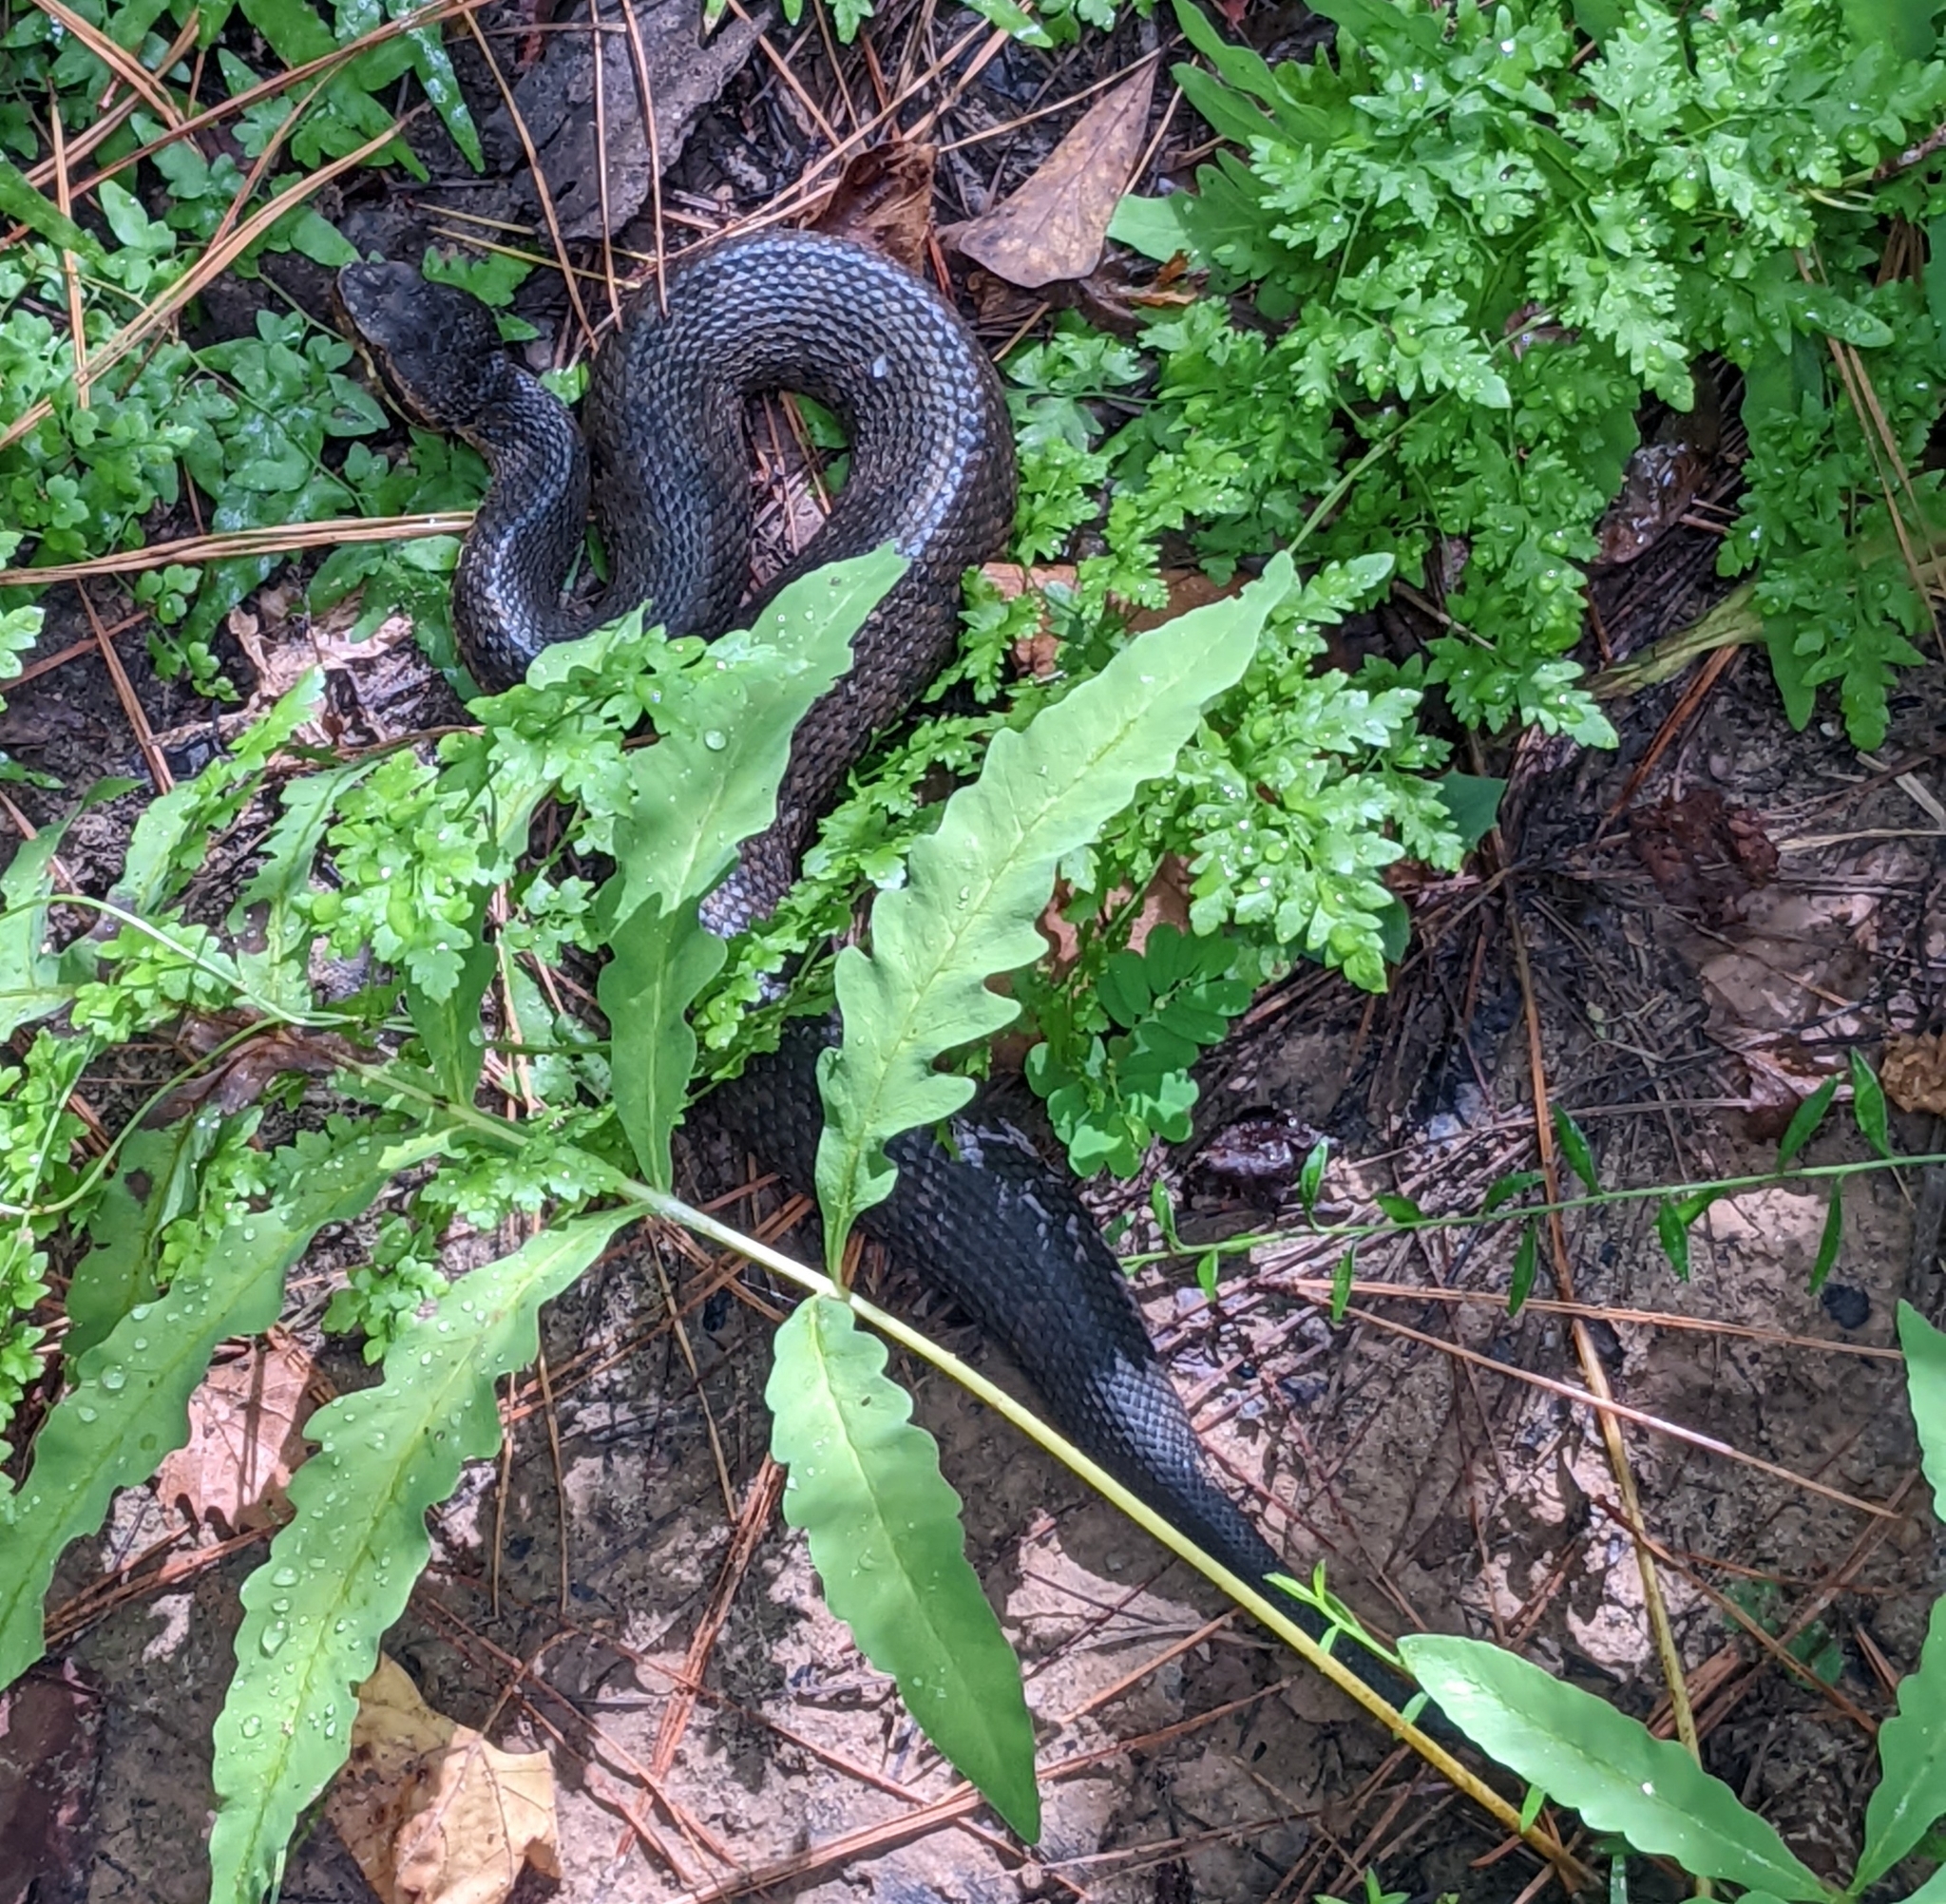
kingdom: Animalia
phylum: Chordata
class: Squamata
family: Viperidae
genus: Agkistrodon
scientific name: Agkistrodon piscivorus
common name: Cottonmouth
